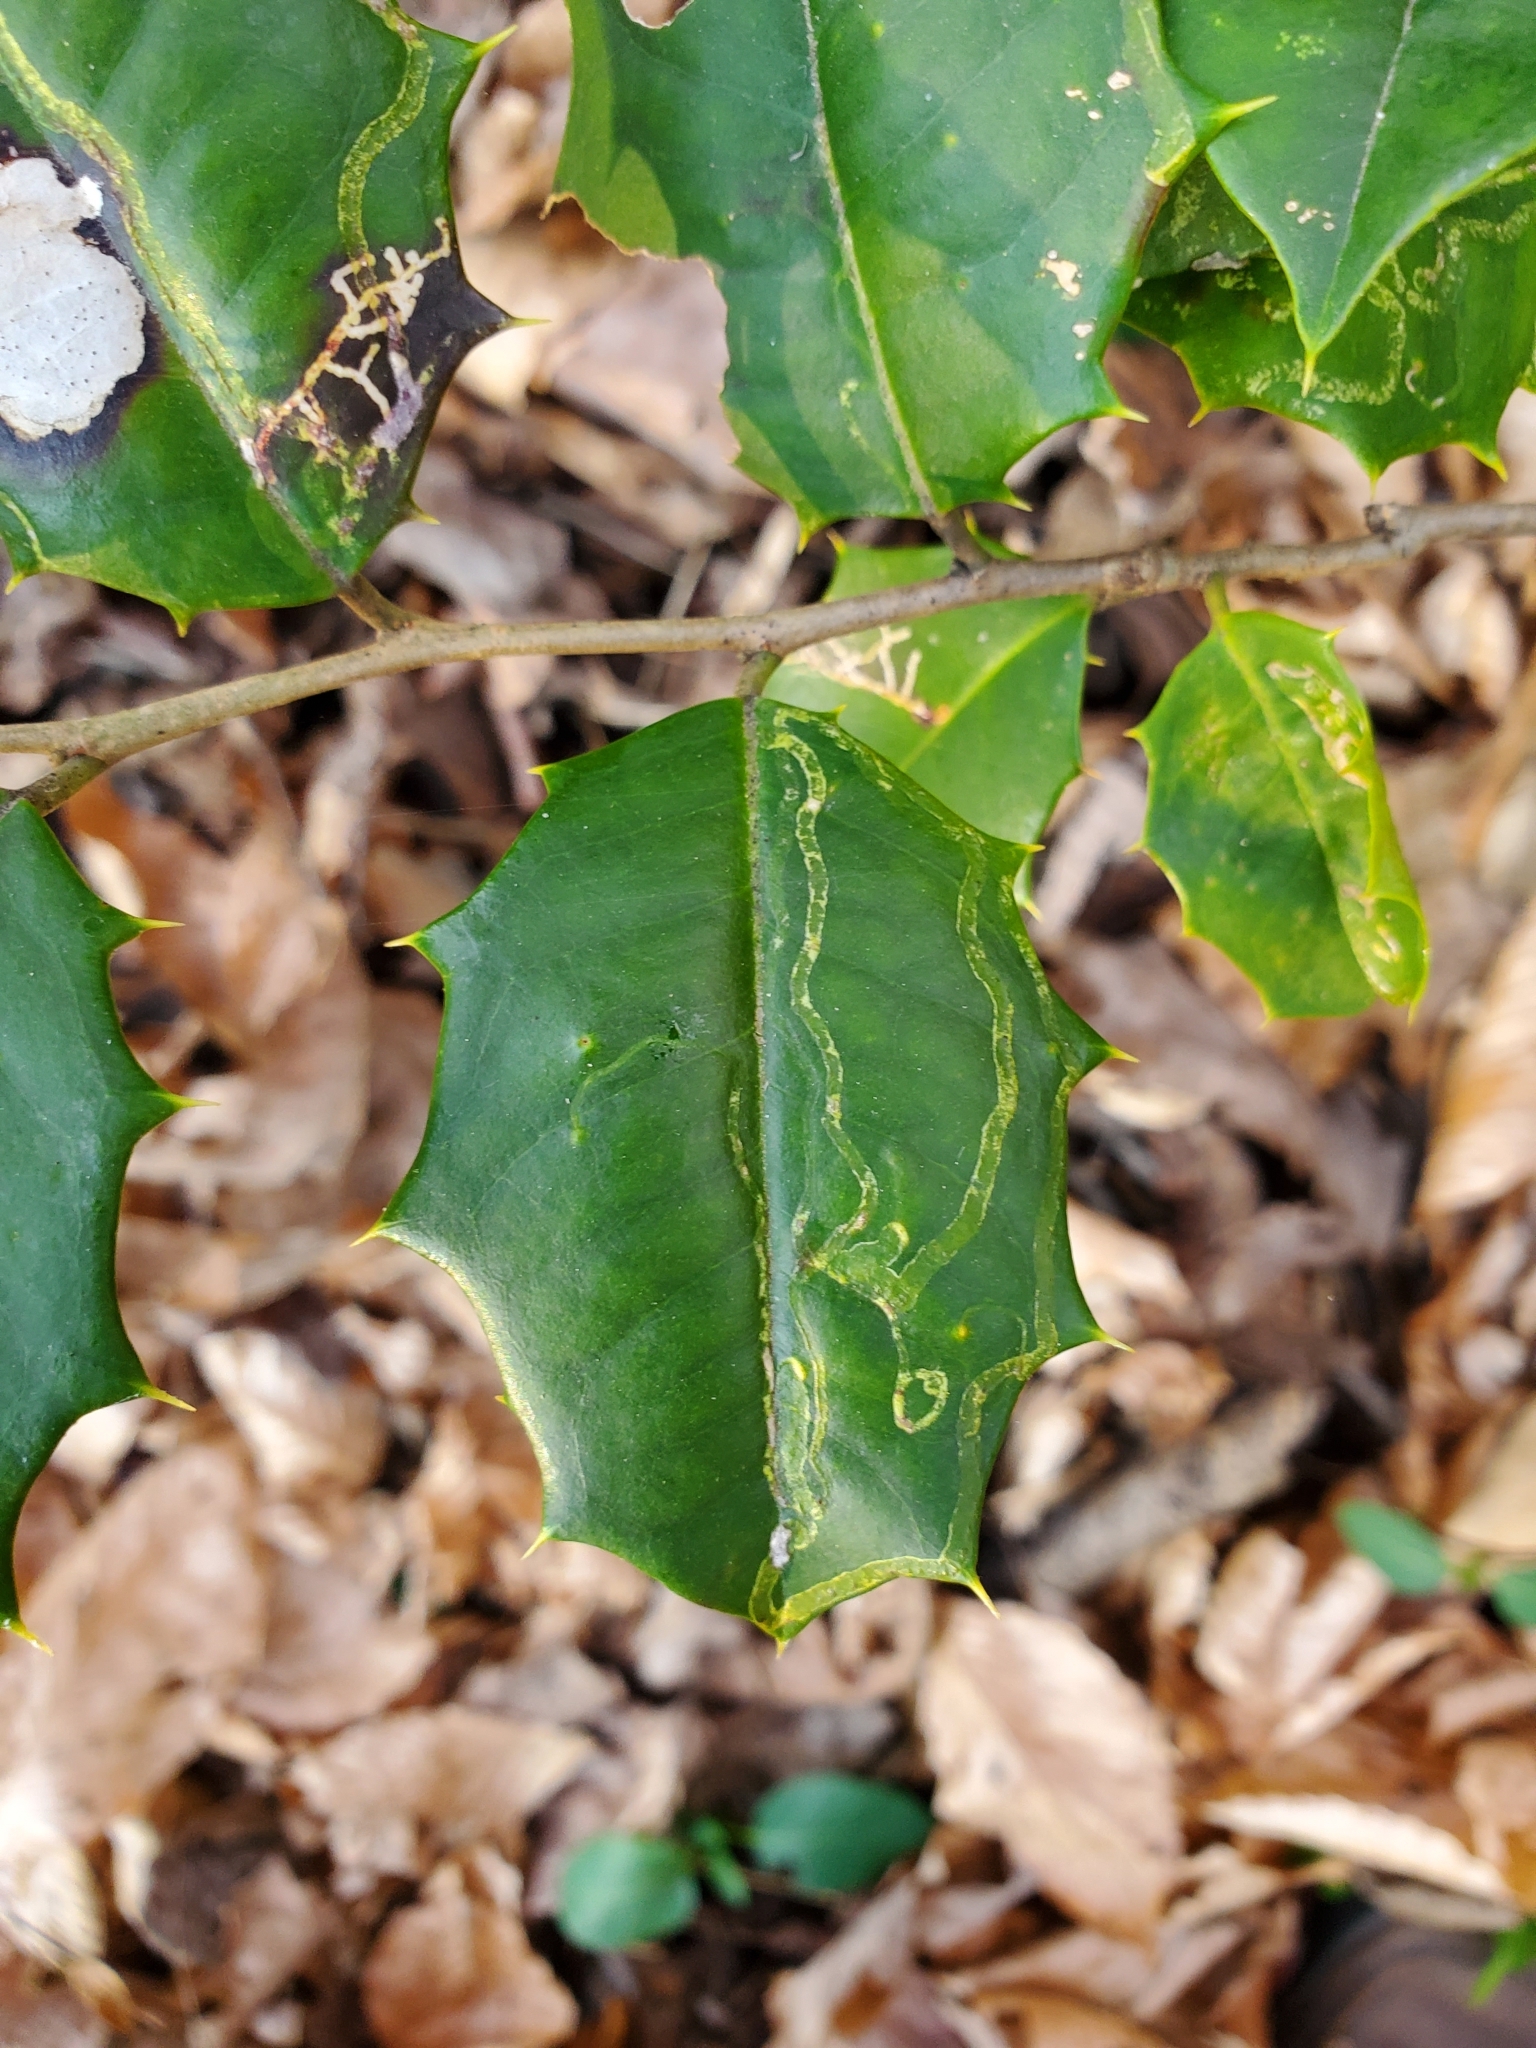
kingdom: Animalia
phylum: Arthropoda
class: Insecta
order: Diptera
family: Agromyzidae
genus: Phytomyza
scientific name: Phytomyza opacae
